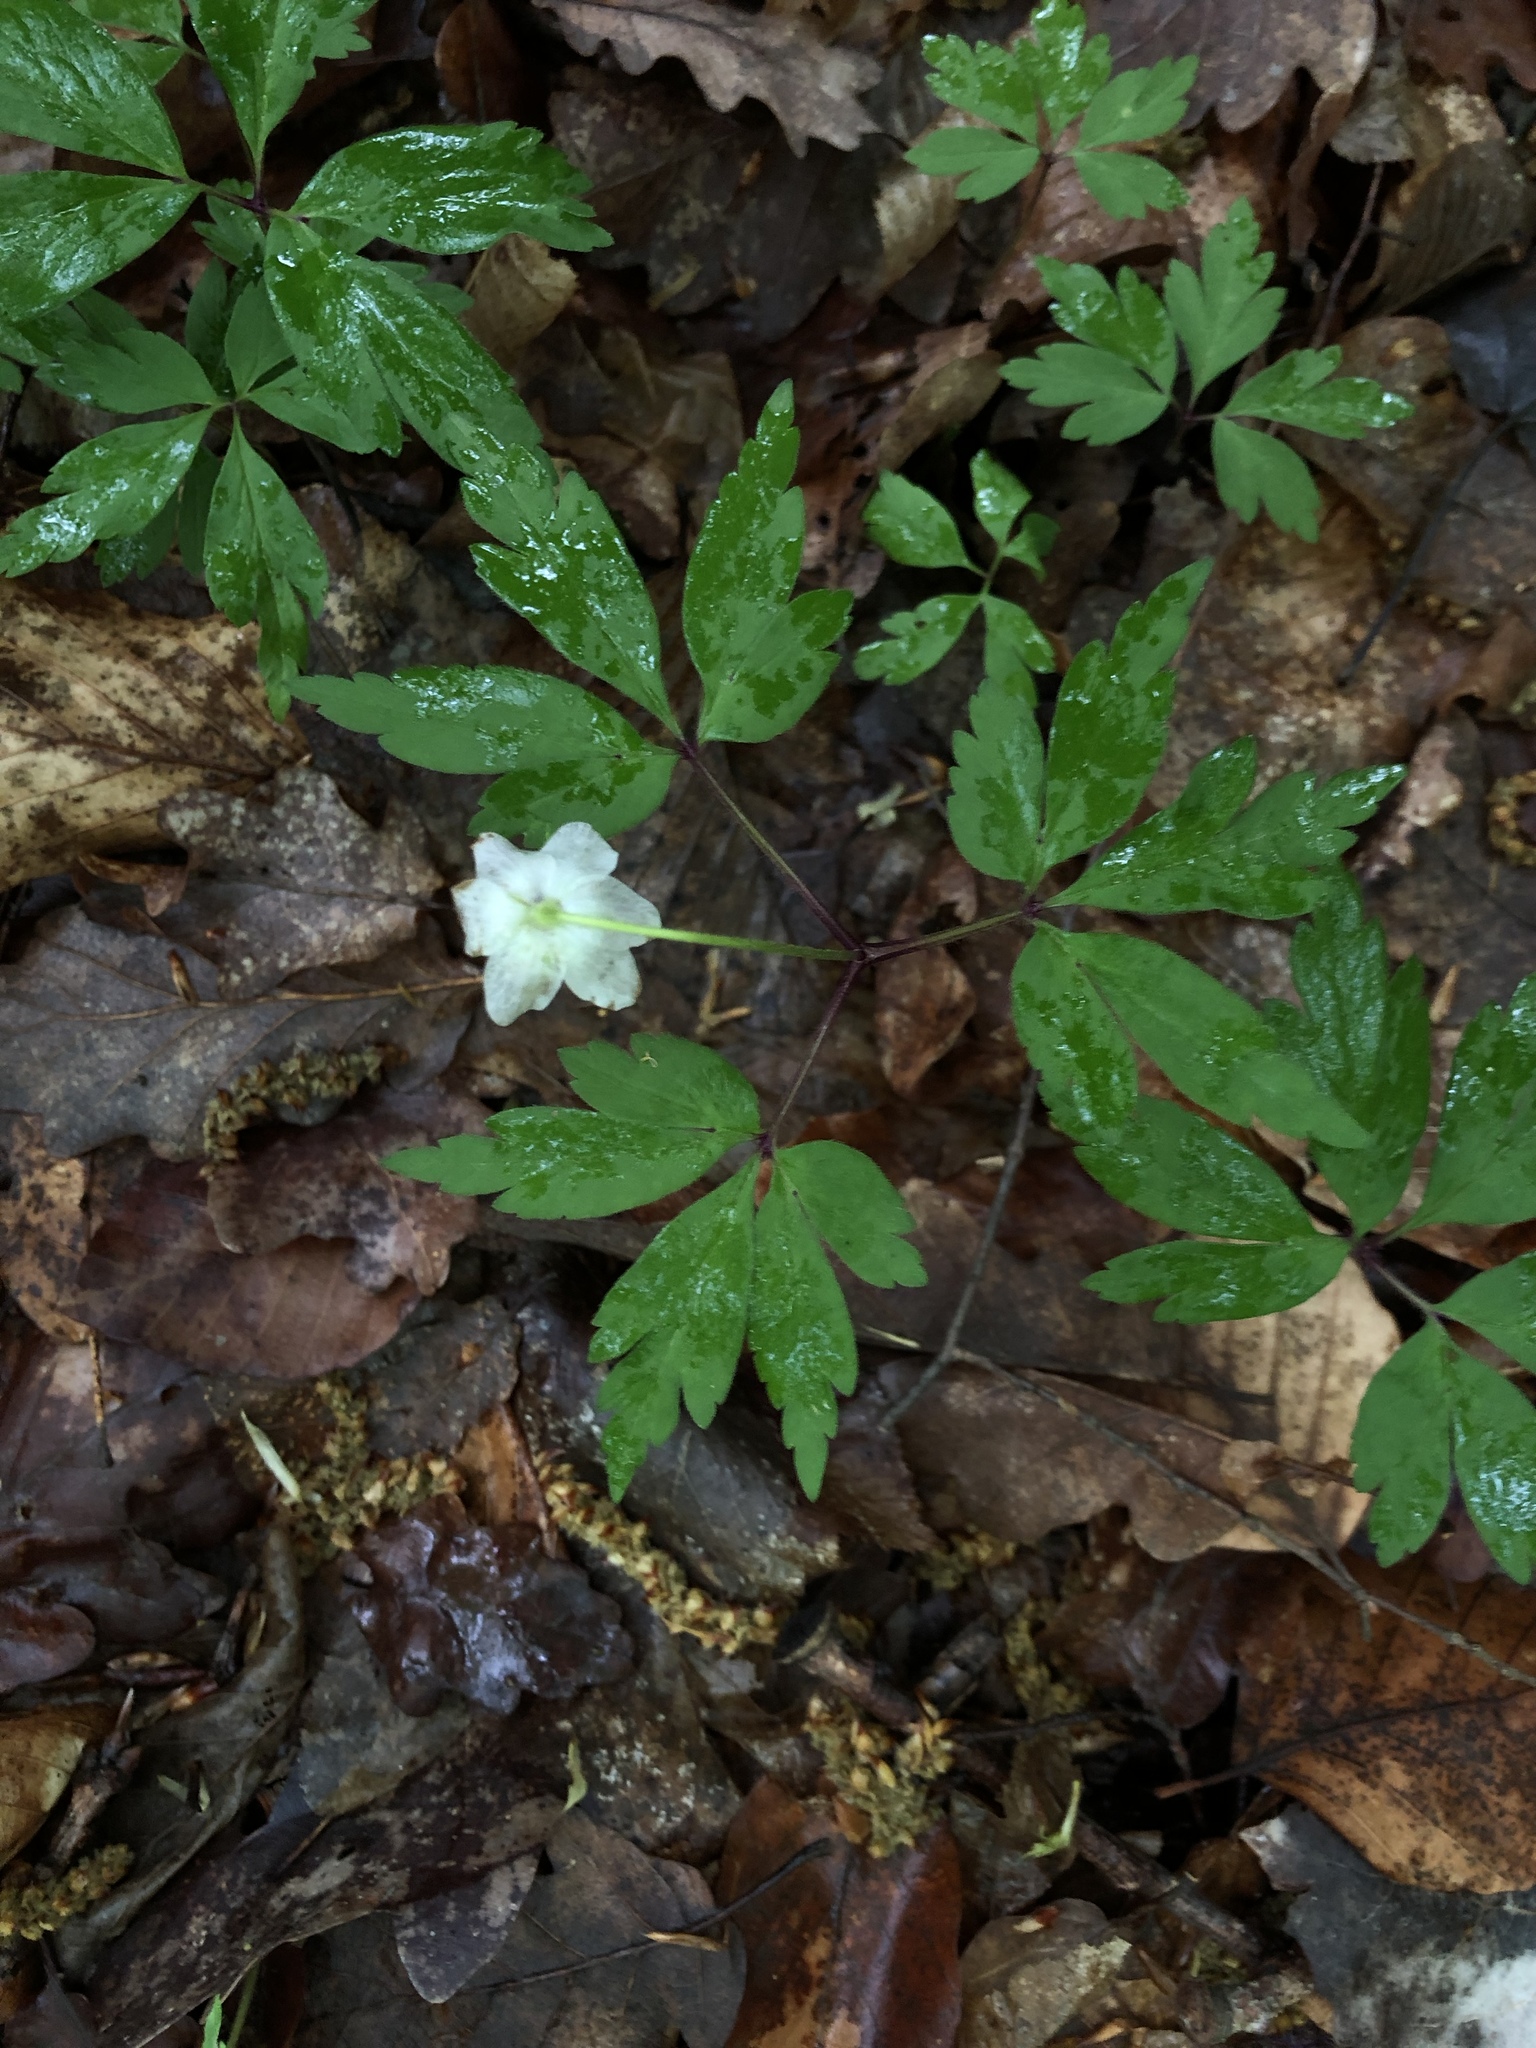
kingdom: Plantae
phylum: Tracheophyta
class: Magnoliopsida
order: Ranunculales
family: Ranunculaceae
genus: Anemone
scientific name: Anemone nemorosa
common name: Wood anemone
